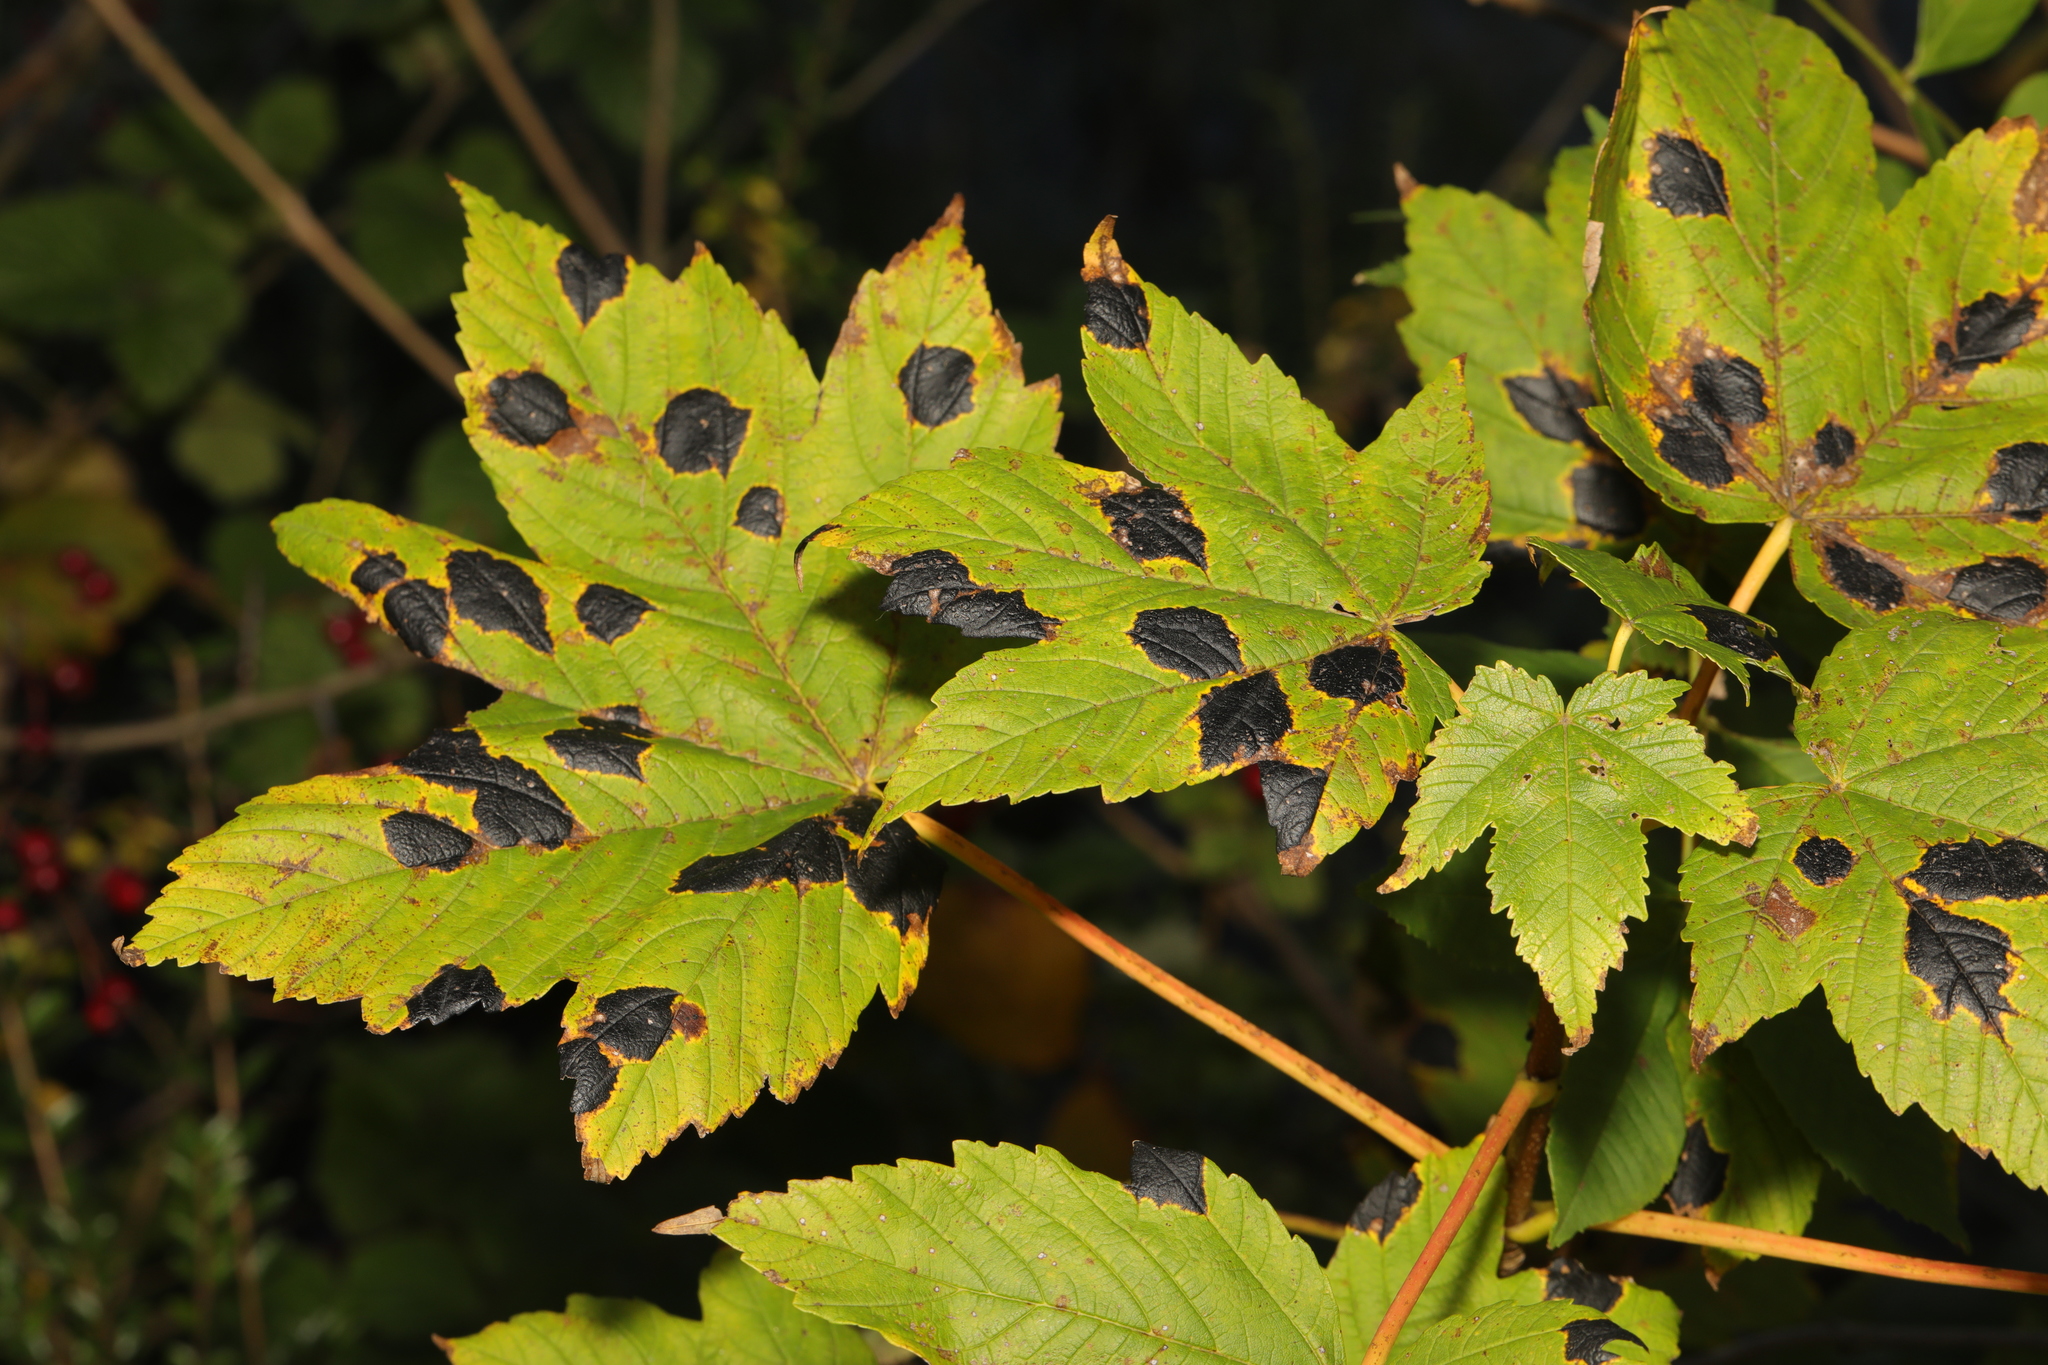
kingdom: Plantae
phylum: Tracheophyta
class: Magnoliopsida
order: Sapindales
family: Sapindaceae
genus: Acer
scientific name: Acer pseudoplatanus
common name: Sycamore
